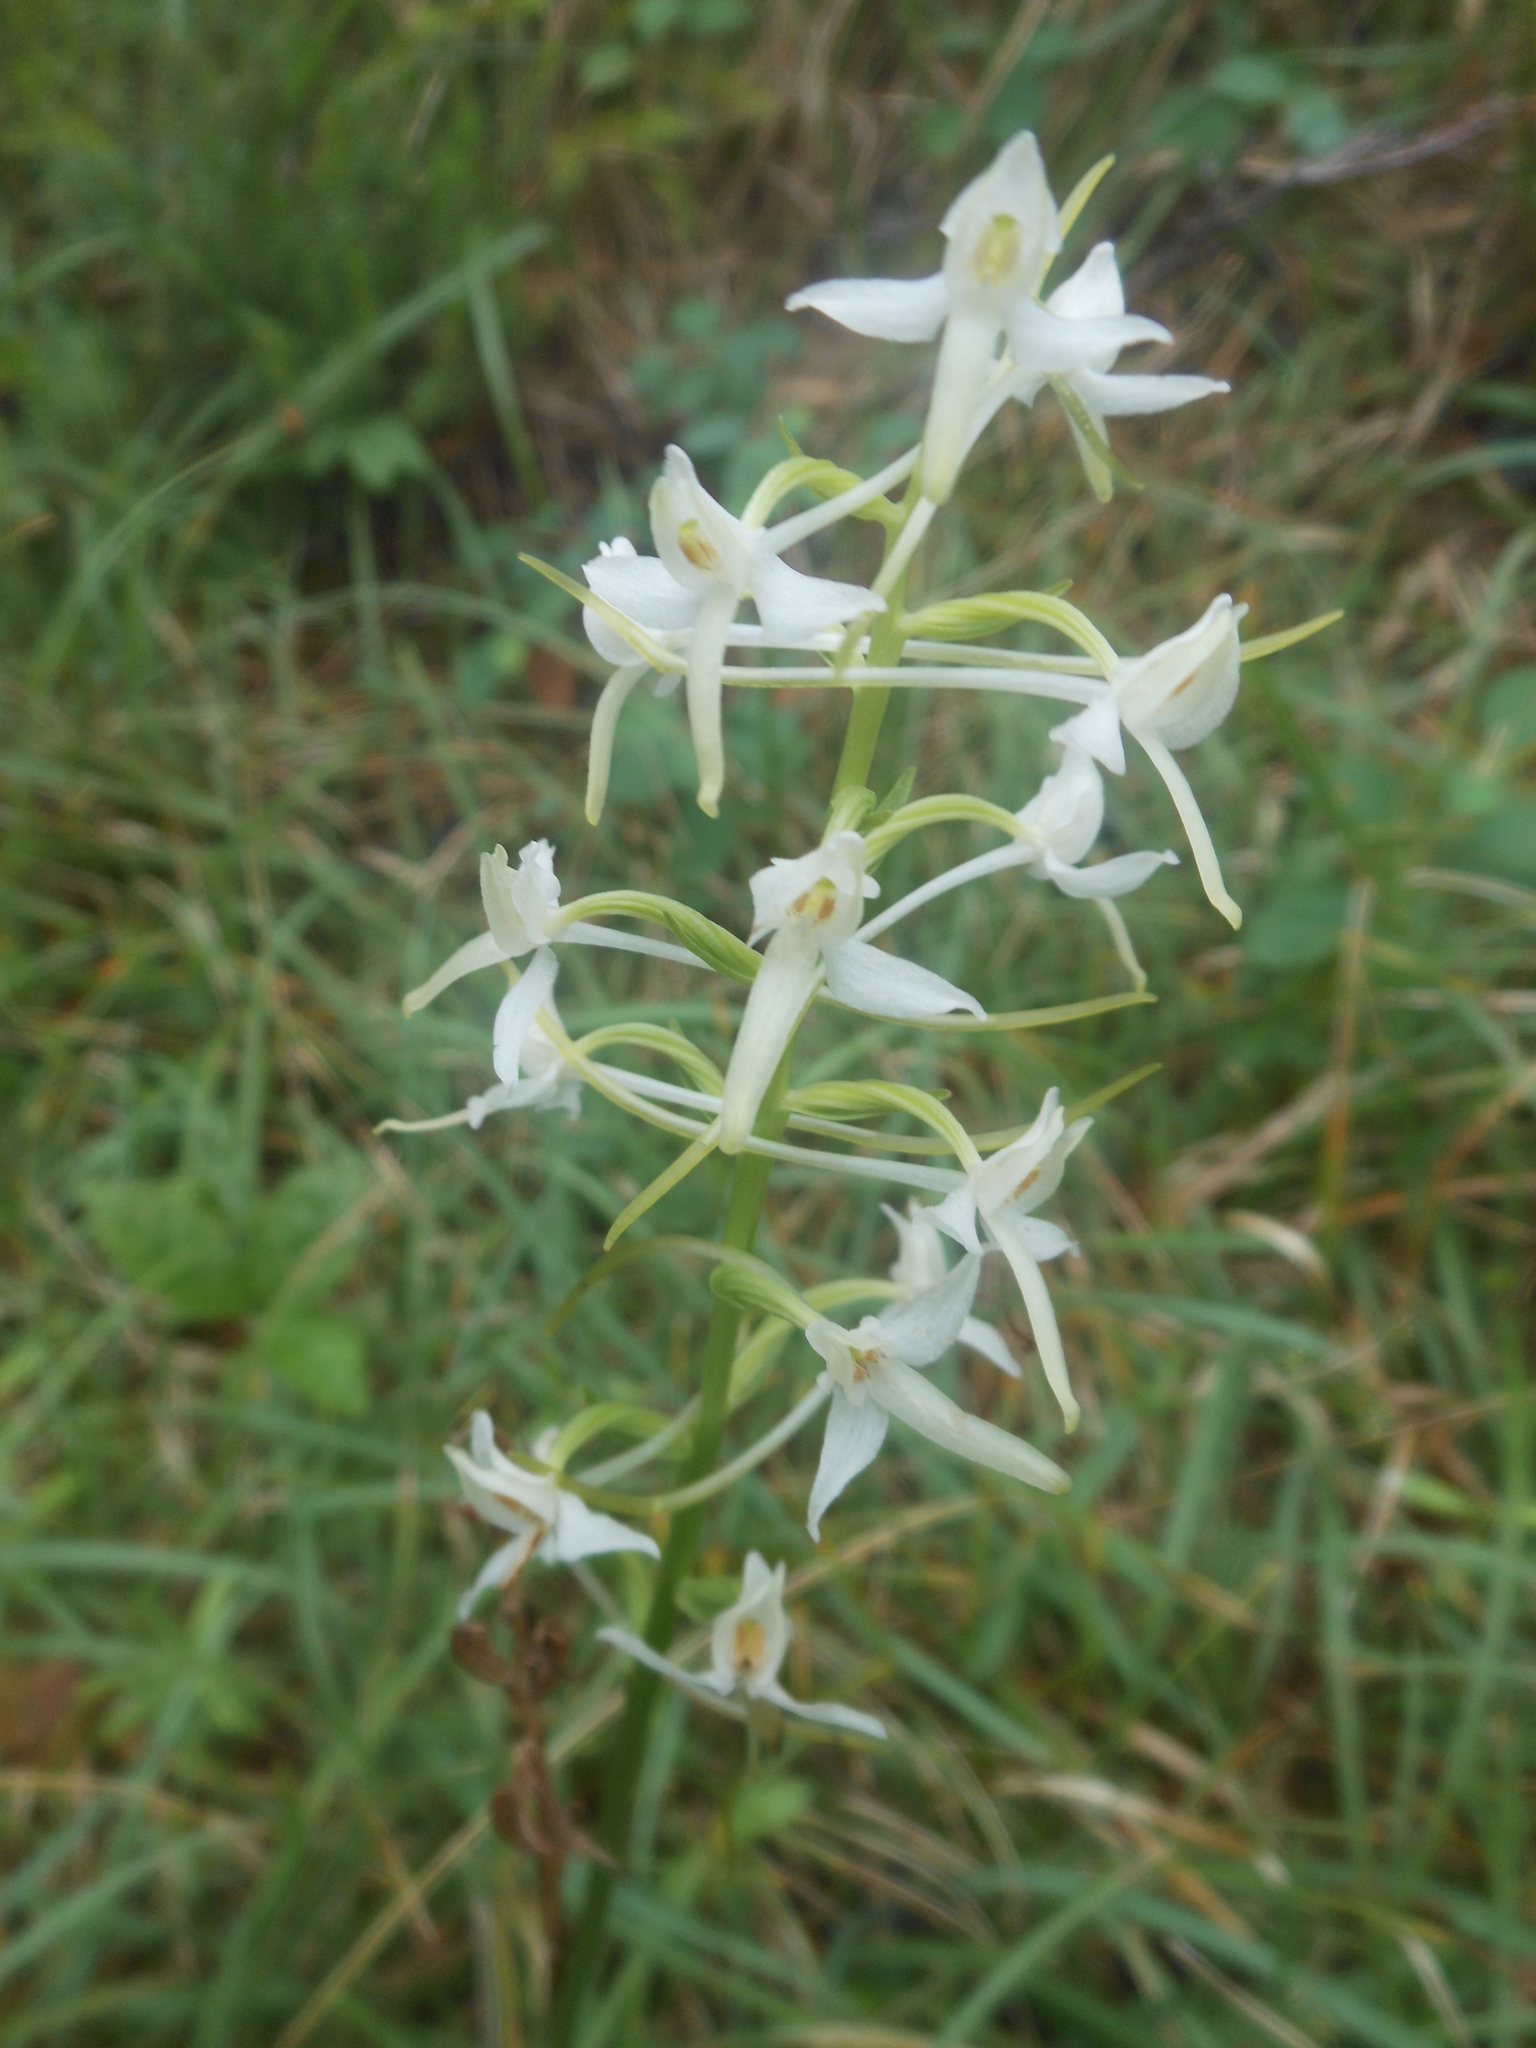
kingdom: Plantae
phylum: Tracheophyta
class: Liliopsida
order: Asparagales
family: Orchidaceae
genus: Platanthera
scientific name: Platanthera bifolia
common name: Lesser butterfly-orchid
